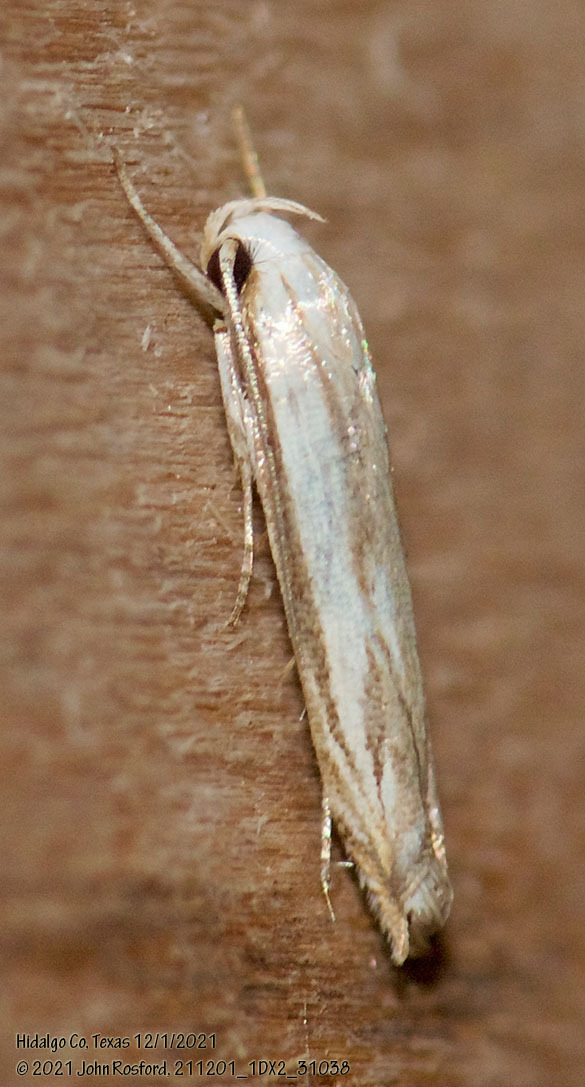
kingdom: Animalia
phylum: Arthropoda
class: Insecta
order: Lepidoptera
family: Gelechiidae
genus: Polyhymno
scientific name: Polyhymno luteostrigella
